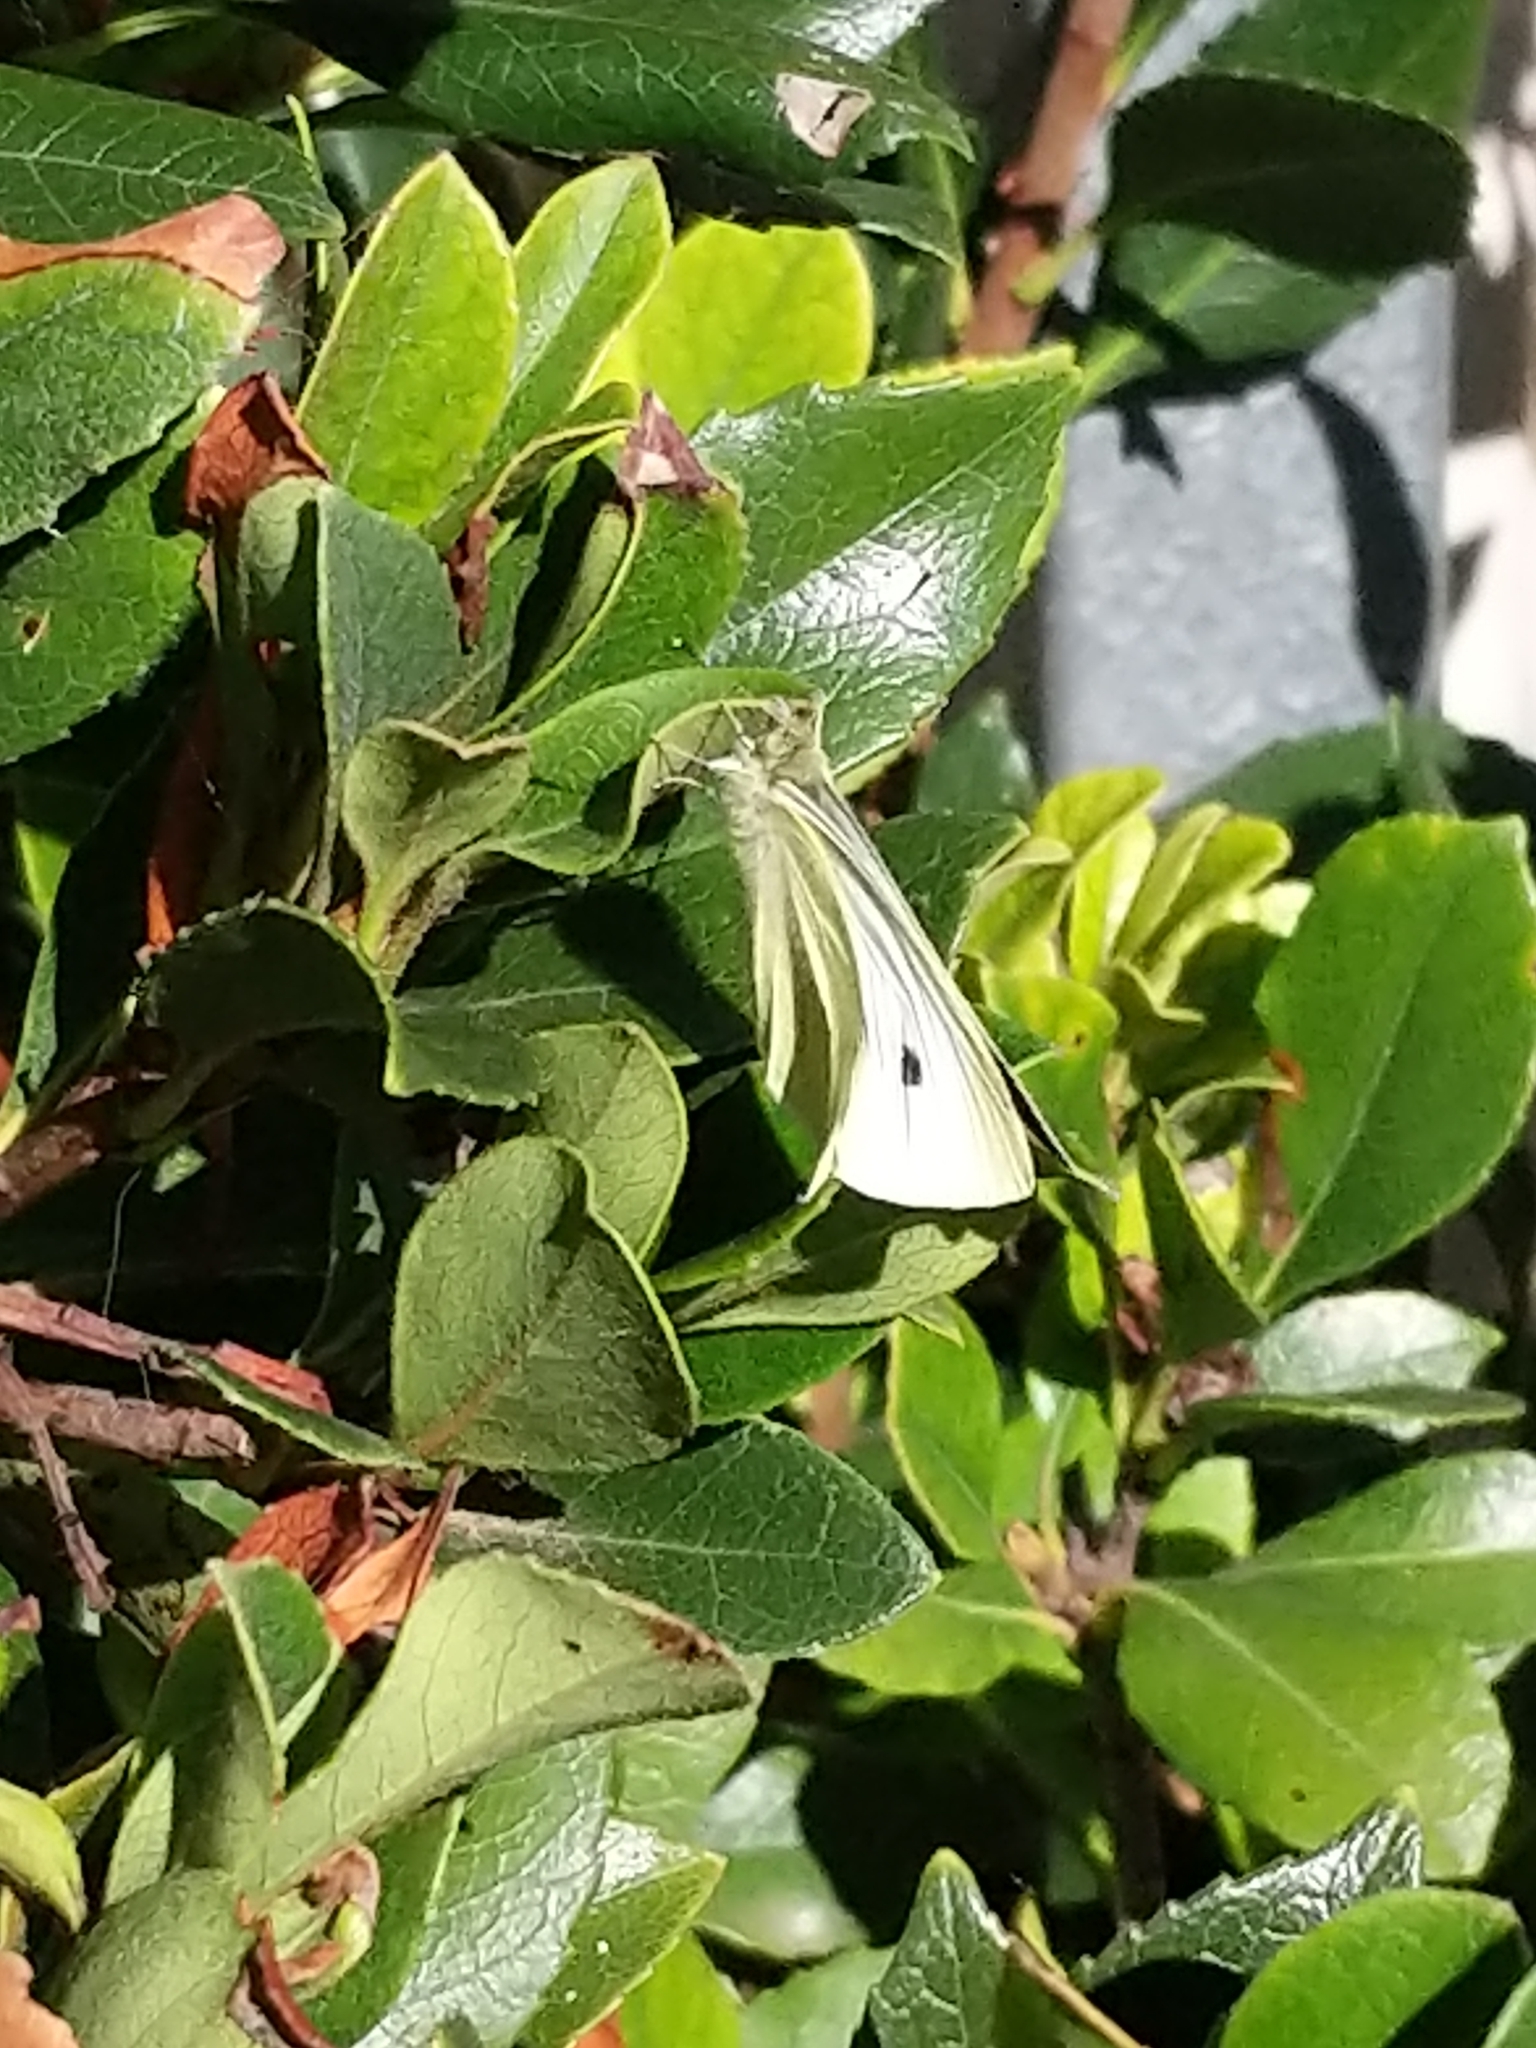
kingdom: Animalia
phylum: Arthropoda
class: Insecta
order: Lepidoptera
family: Pieridae
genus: Pieris
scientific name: Pieris rapae
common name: Small white
